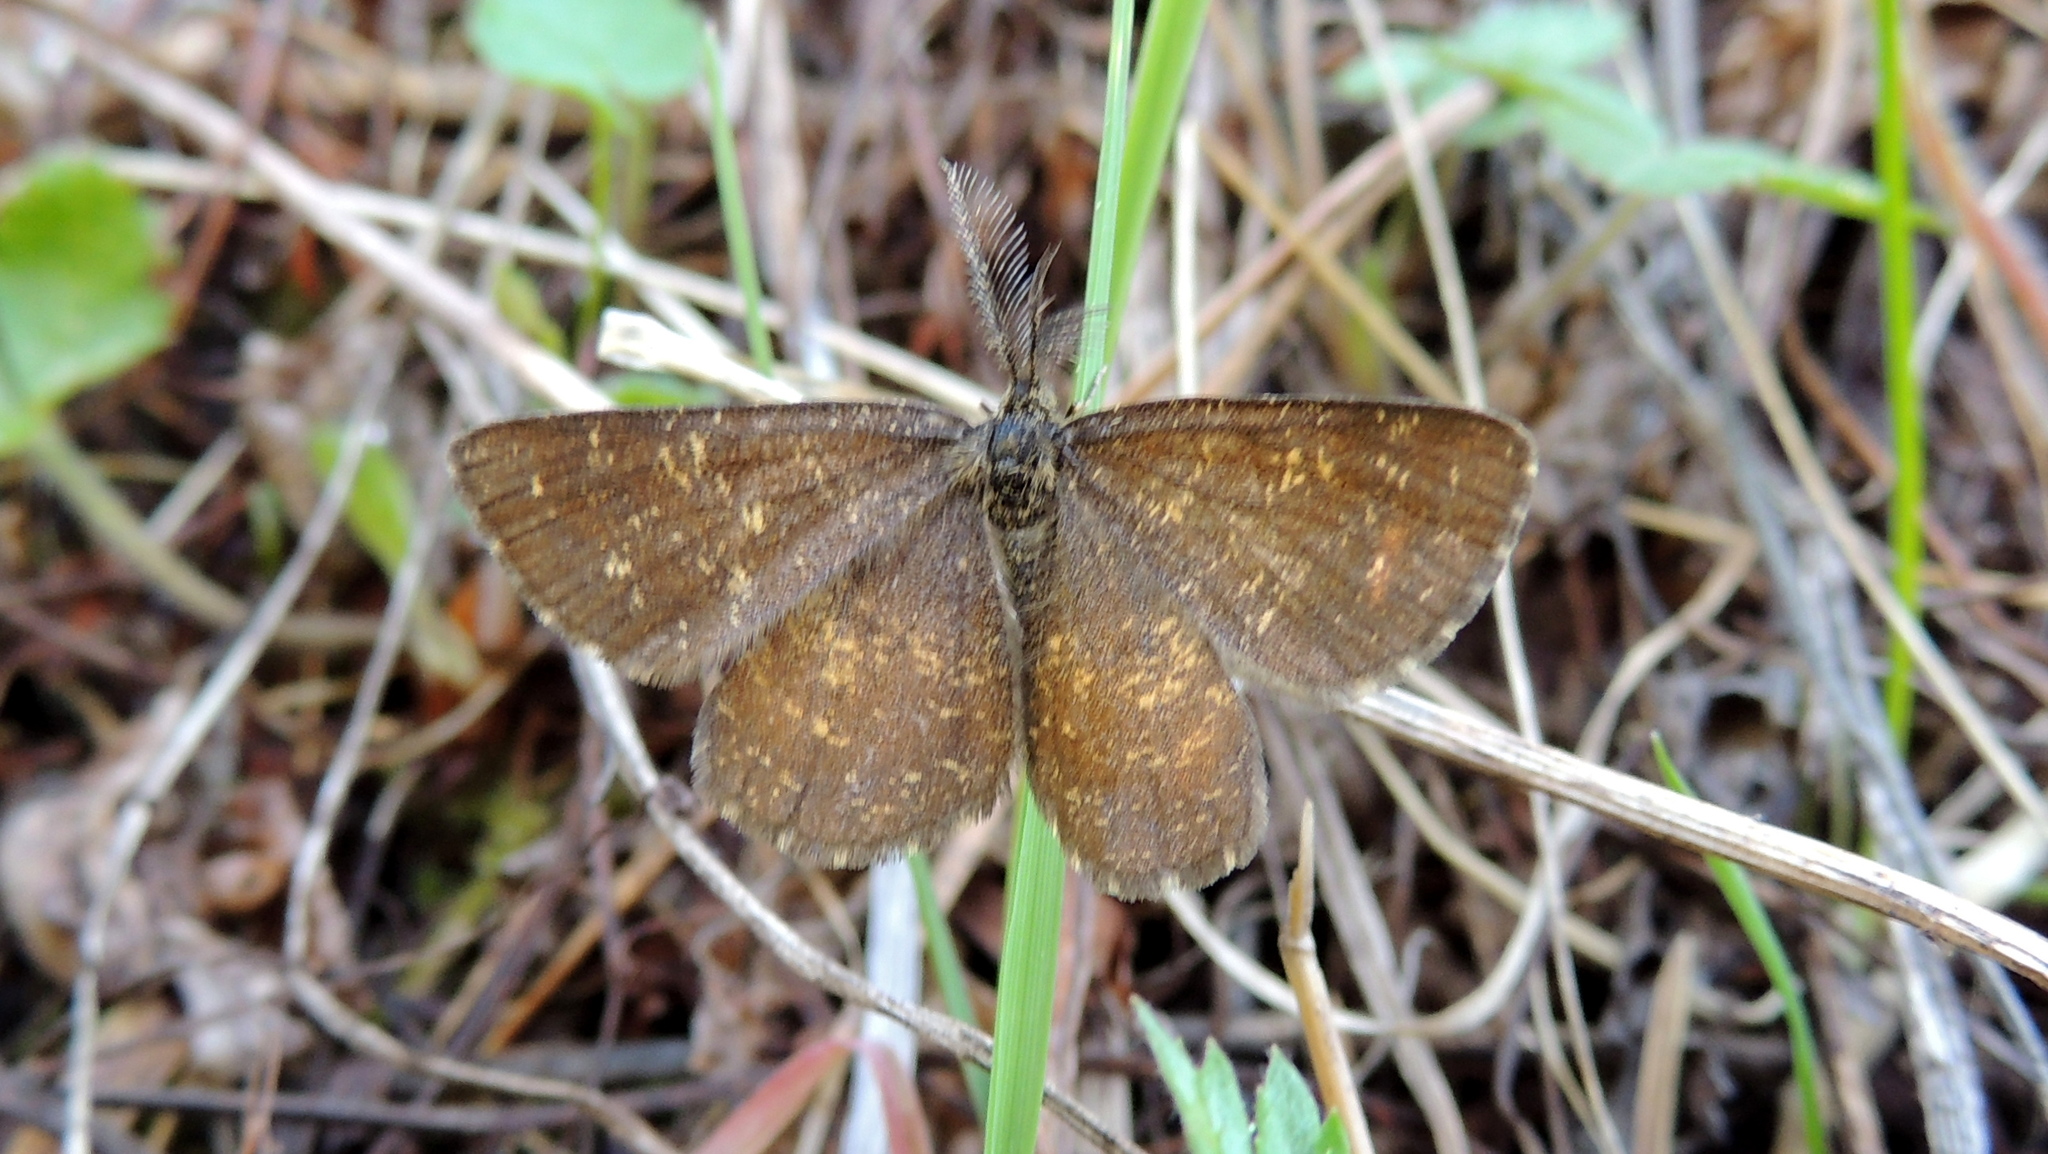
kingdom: Animalia
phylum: Arthropoda
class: Insecta
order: Lepidoptera
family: Geometridae
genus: Ematurga
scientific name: Ematurga atomaria
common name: Common heath
